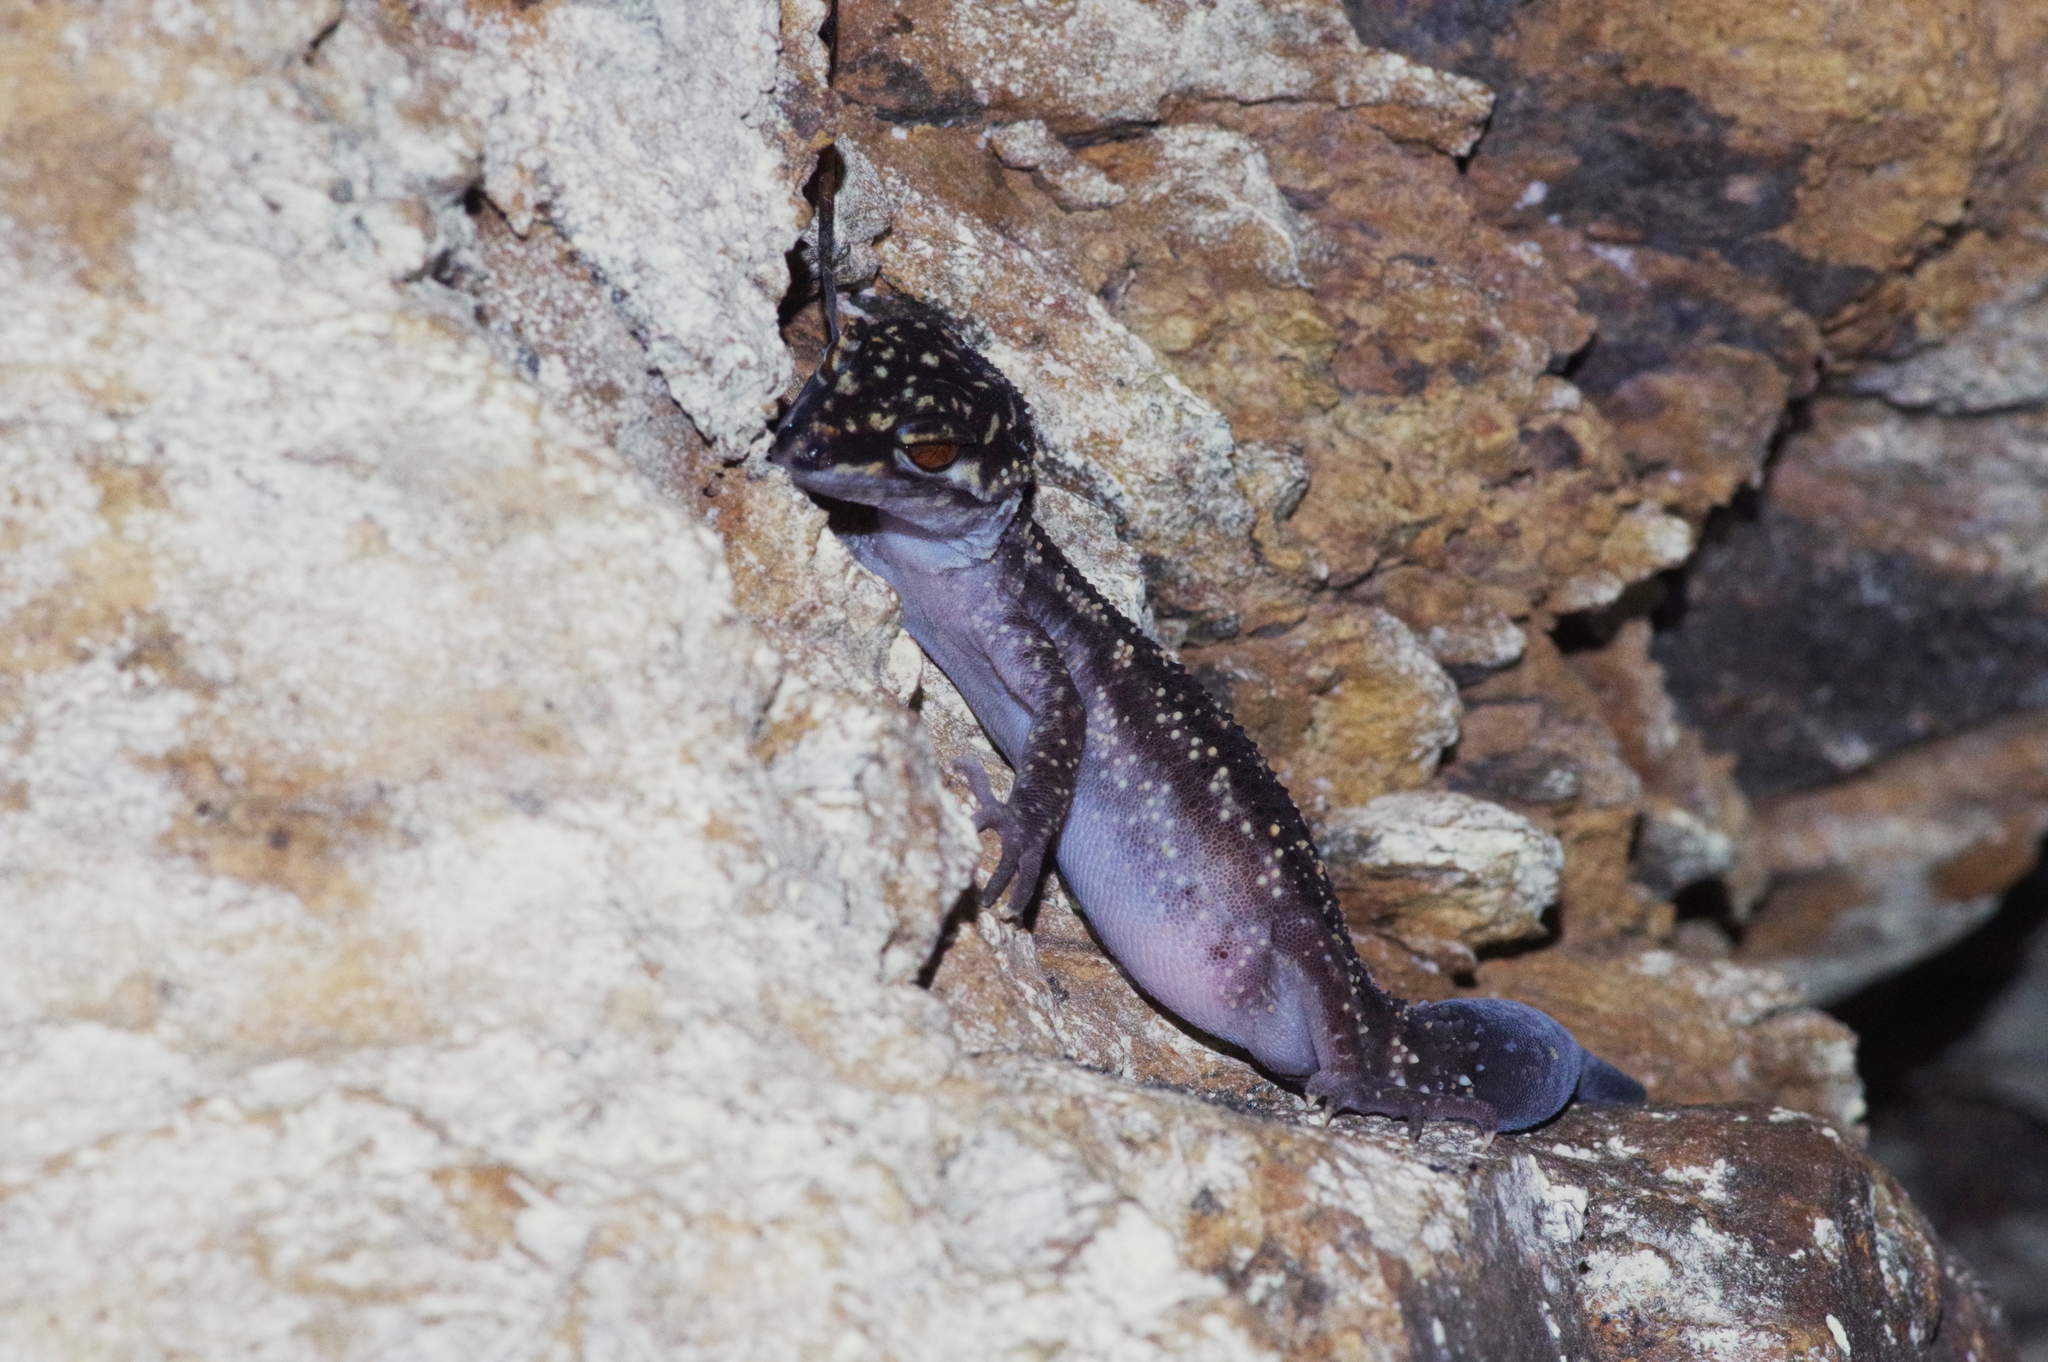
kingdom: Animalia
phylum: Chordata
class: Squamata
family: Eublepharidae
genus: Goniurosaurus
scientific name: Goniurosaurus kuroiwae
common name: Tokashiki gecko
